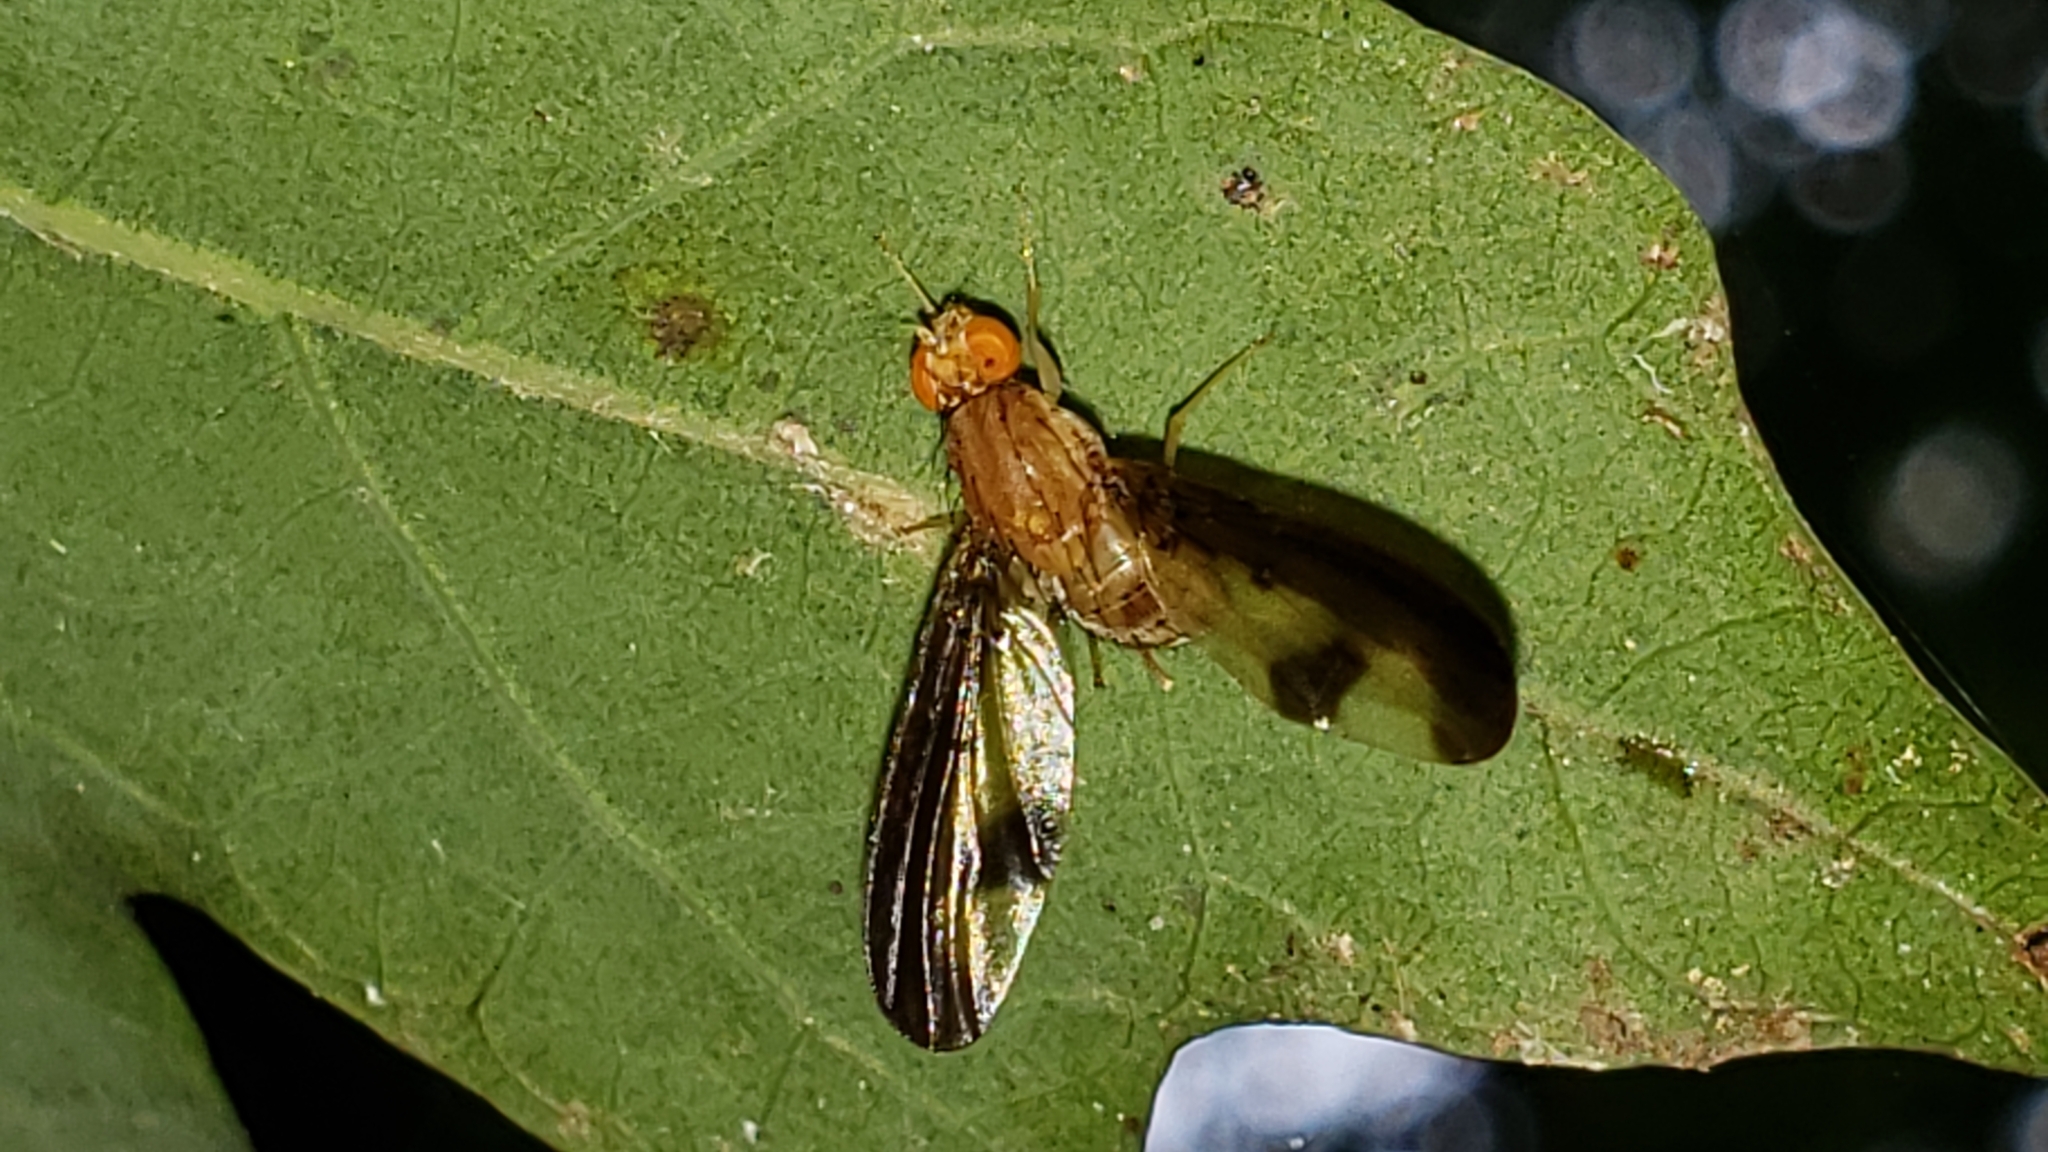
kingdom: Animalia
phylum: Arthropoda
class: Insecta
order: Diptera
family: Pallopteridae
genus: Toxonevra
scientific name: Toxonevra superba
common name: Antlered flutter fly
